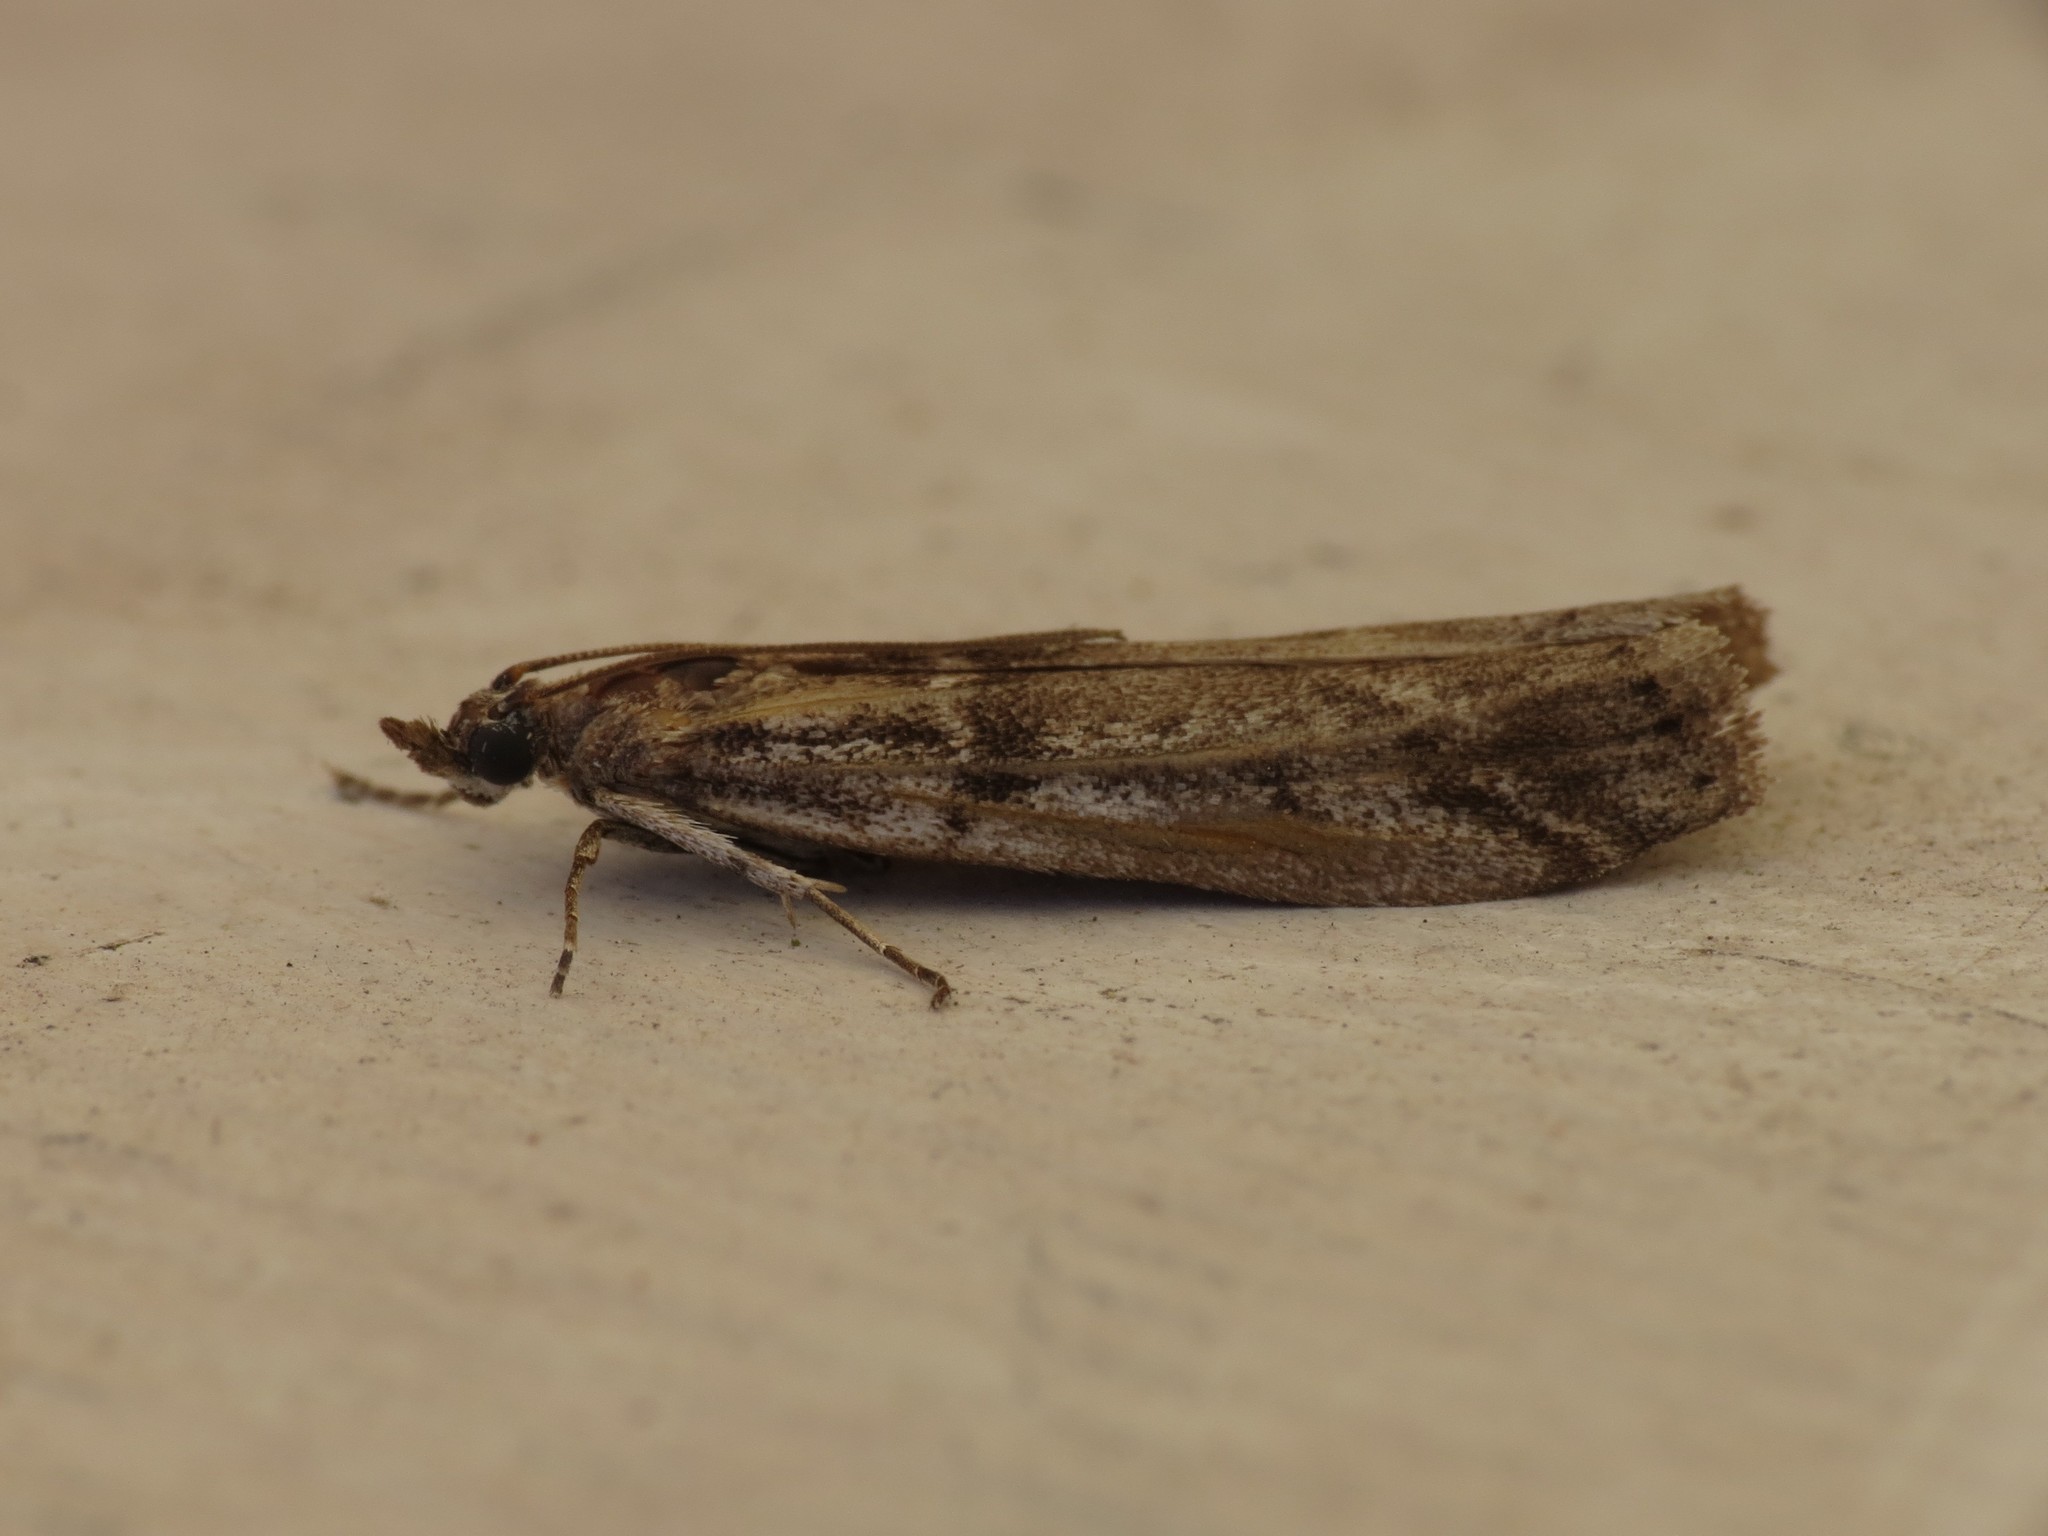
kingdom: Animalia
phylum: Arthropoda
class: Insecta
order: Lepidoptera
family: Pyralidae
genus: Zophodia
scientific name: Zophodia convolutella
